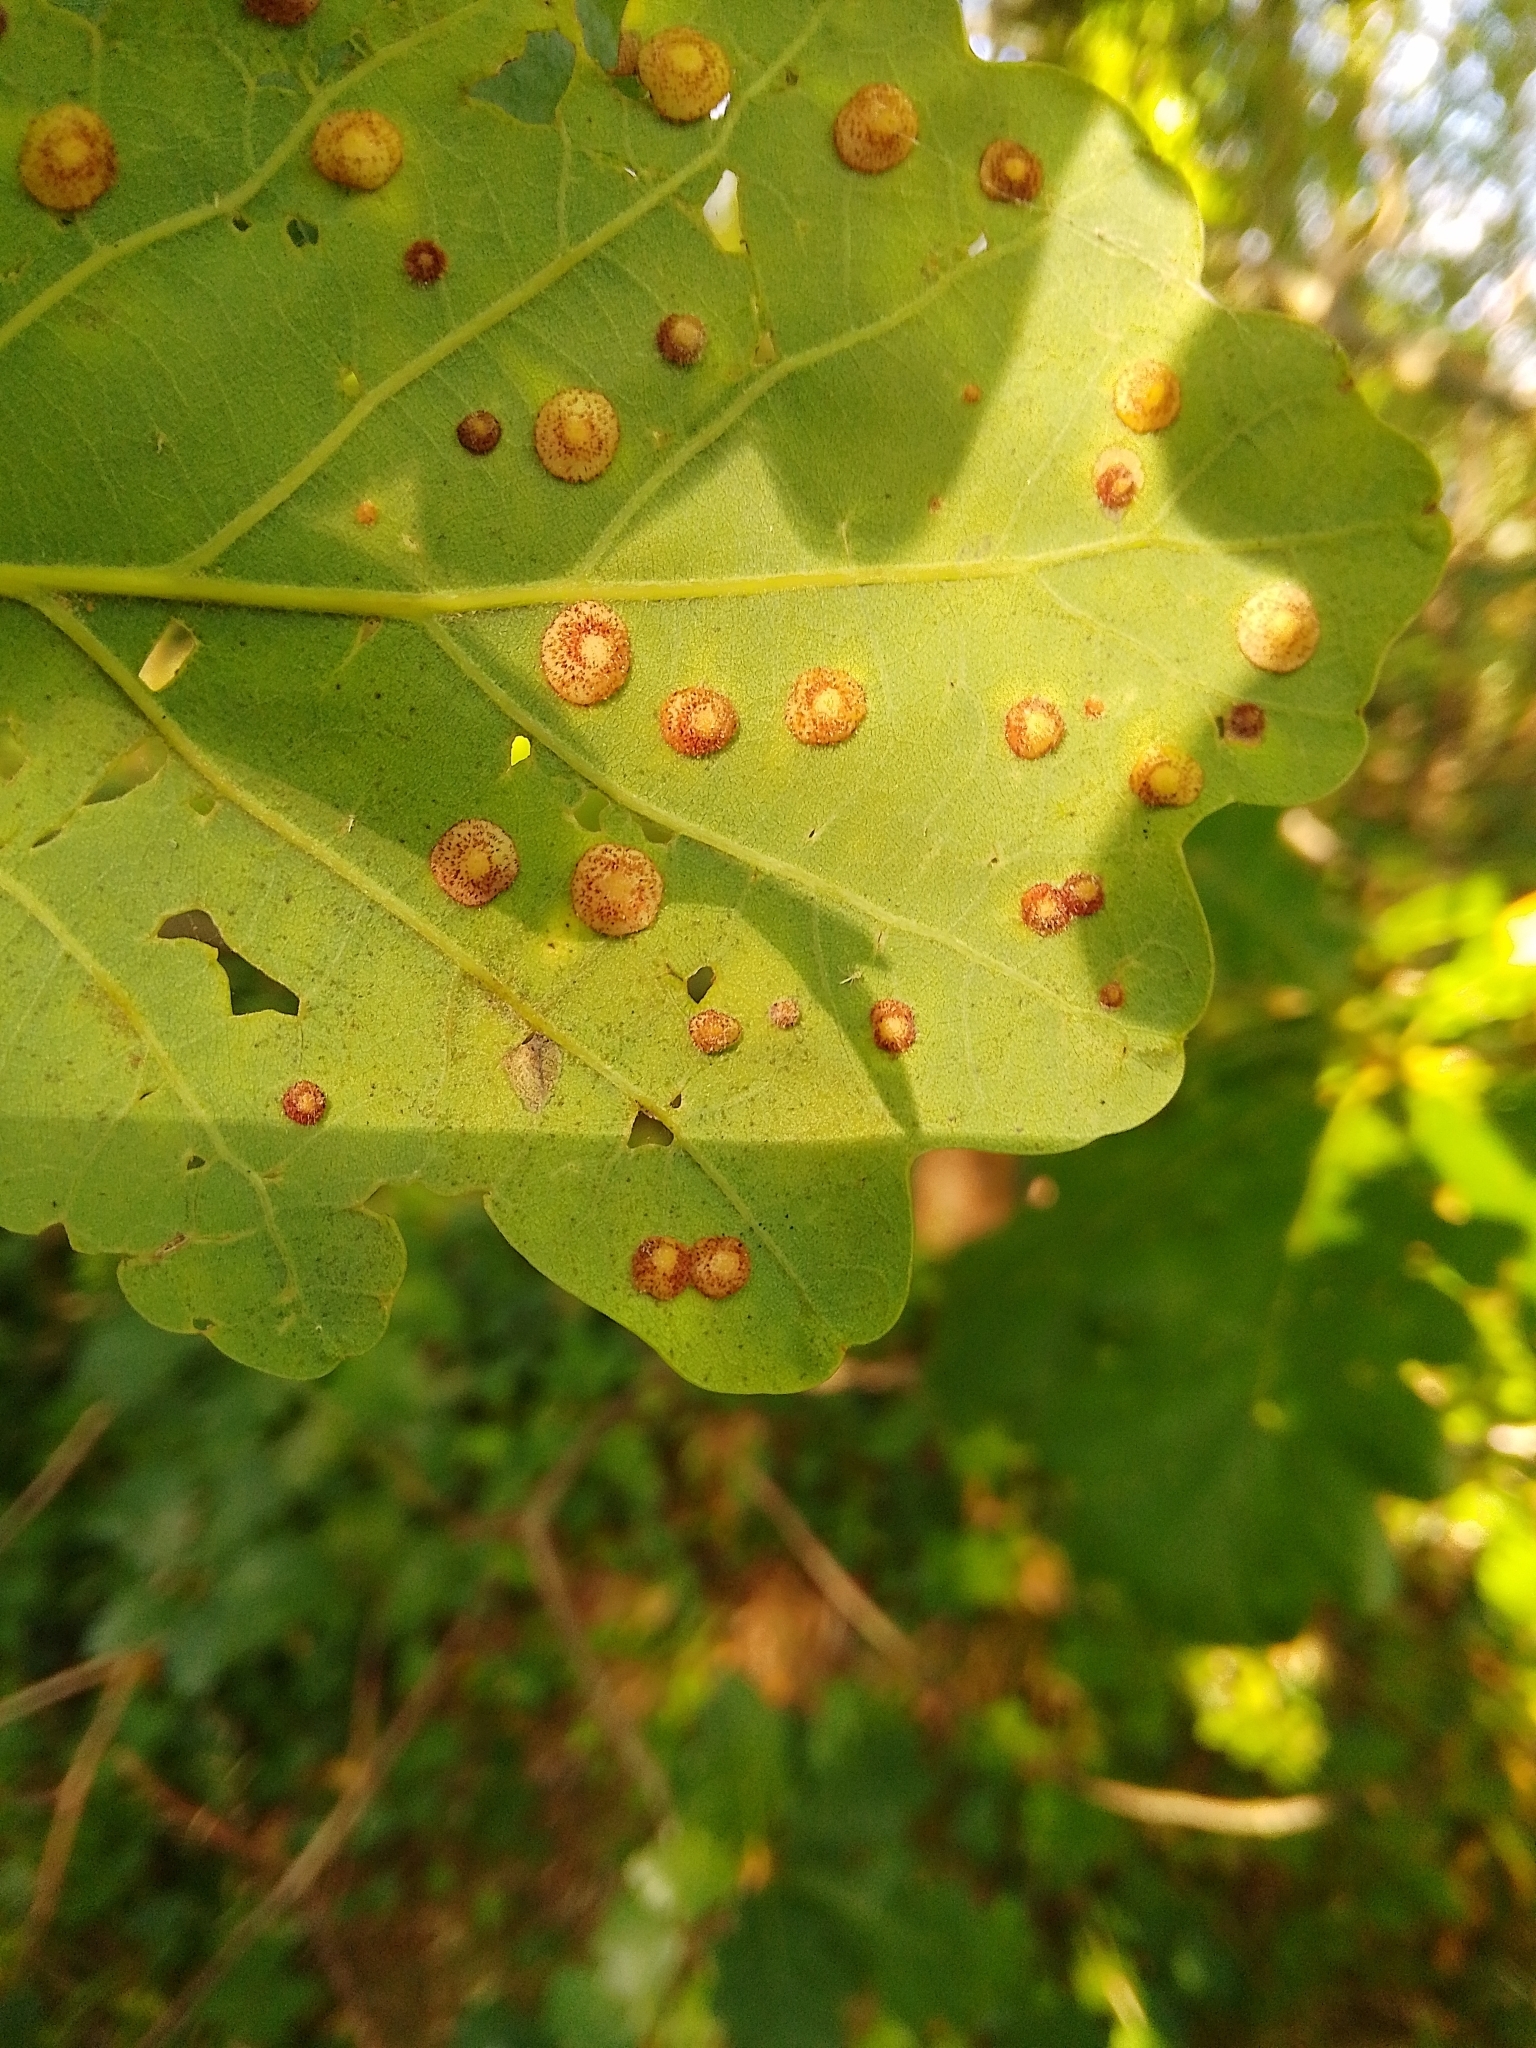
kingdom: Animalia
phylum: Arthropoda
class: Insecta
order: Hymenoptera
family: Cynipidae
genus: Neuroterus
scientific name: Neuroterus quercusbaccarum
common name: Common spangle gall
